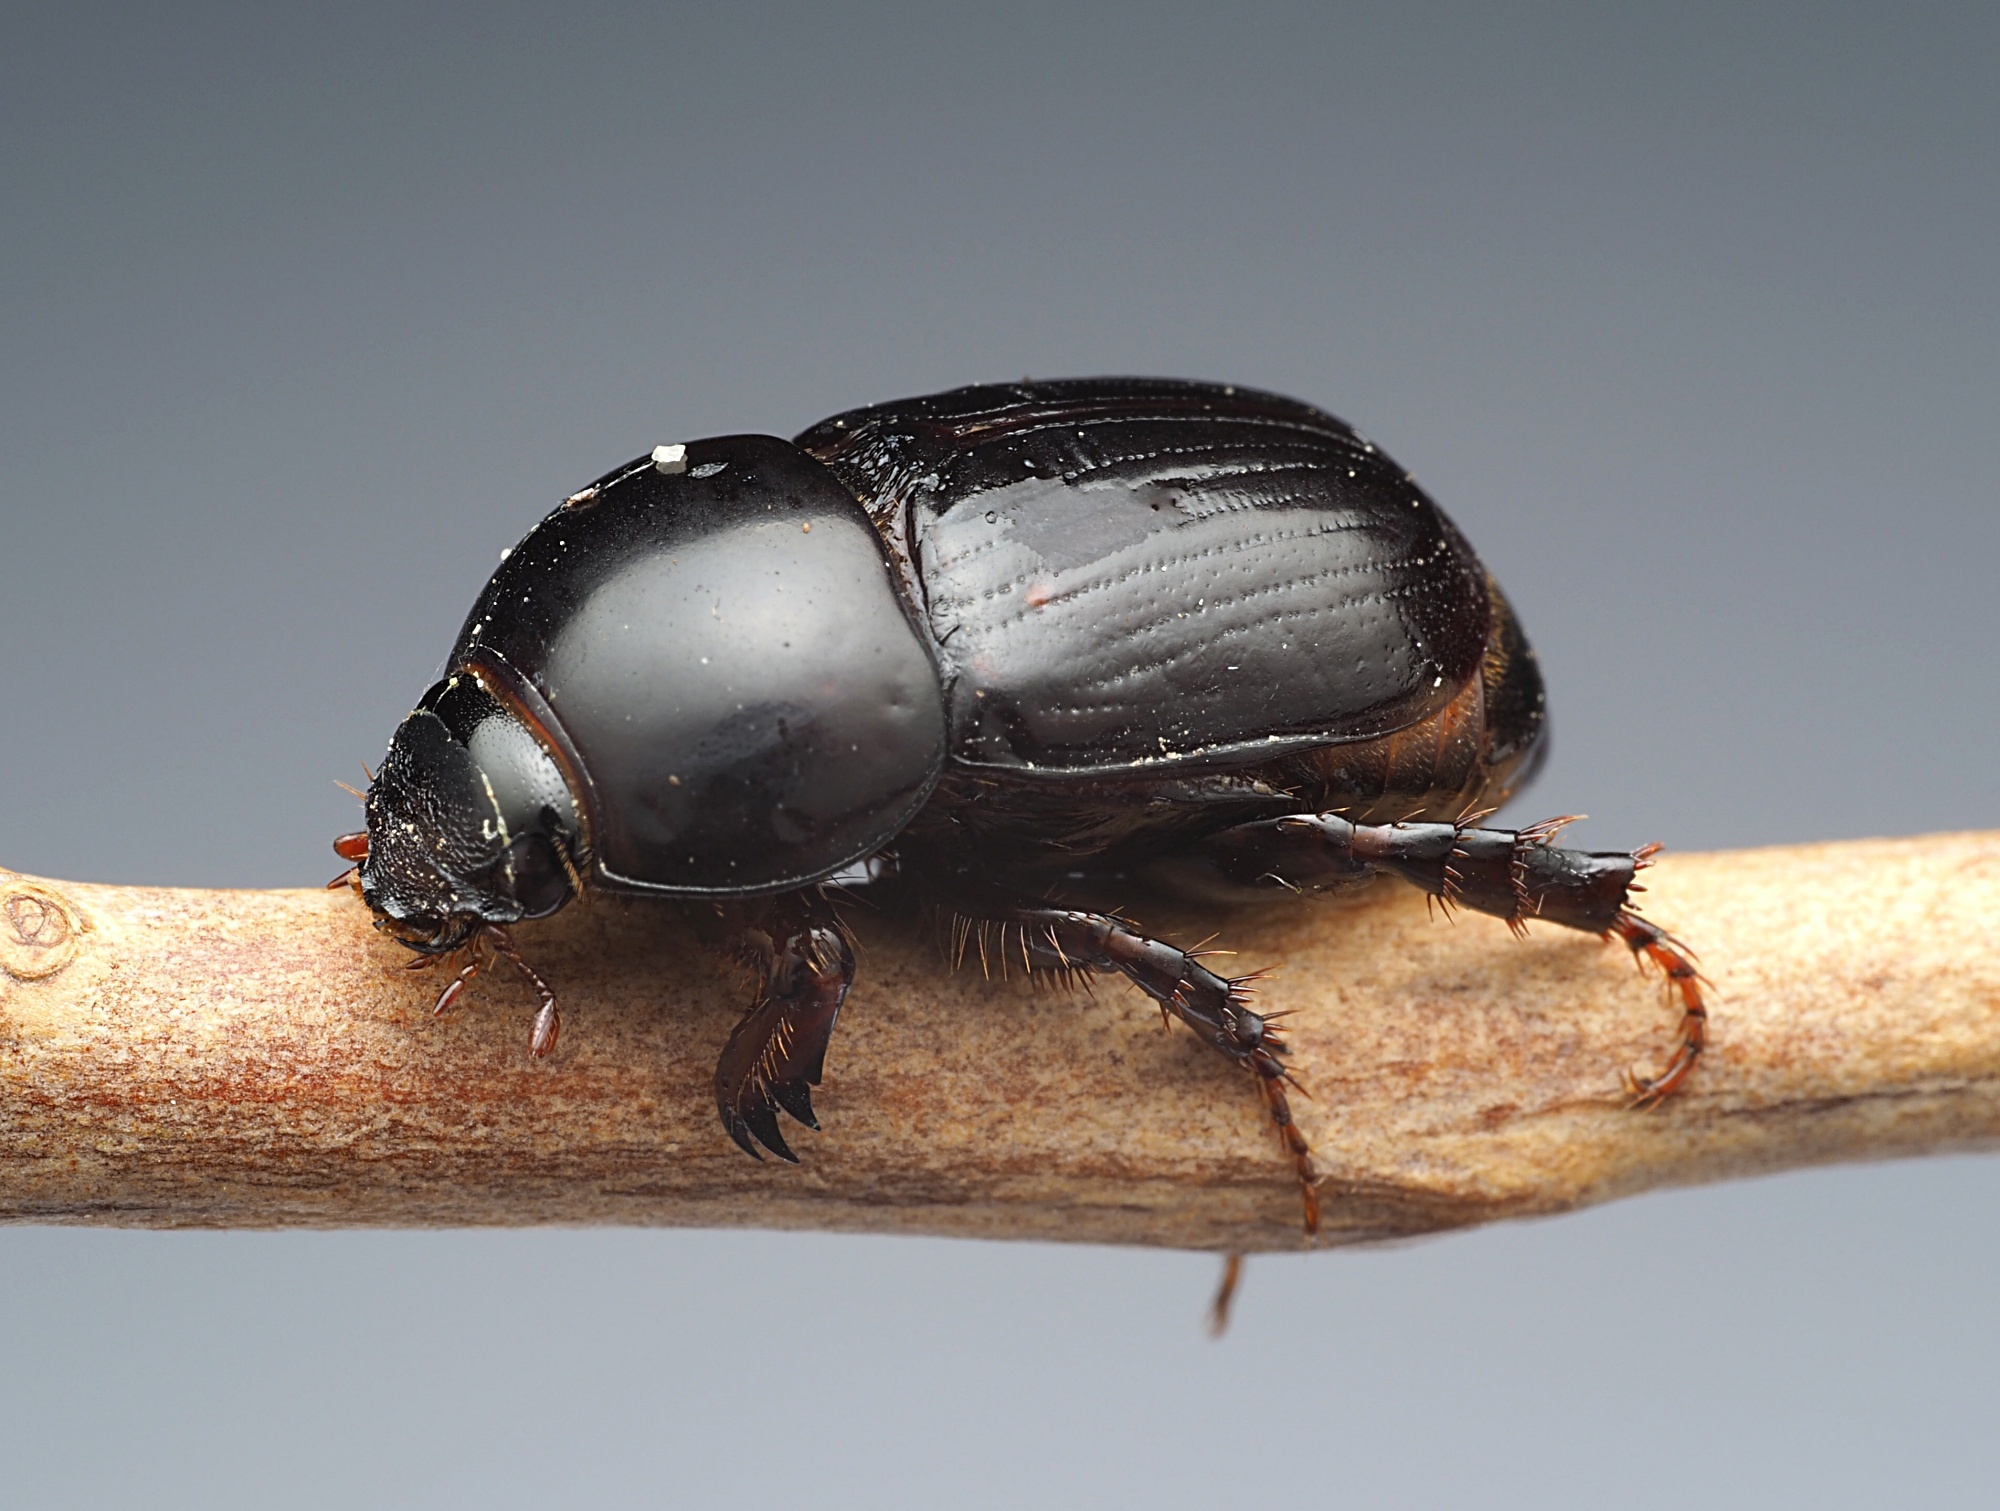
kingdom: Animalia
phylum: Arthropoda
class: Insecta
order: Coleoptera
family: Scarabaeidae
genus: Heteronychus
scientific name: Heteronychus arator
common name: African black beetle
